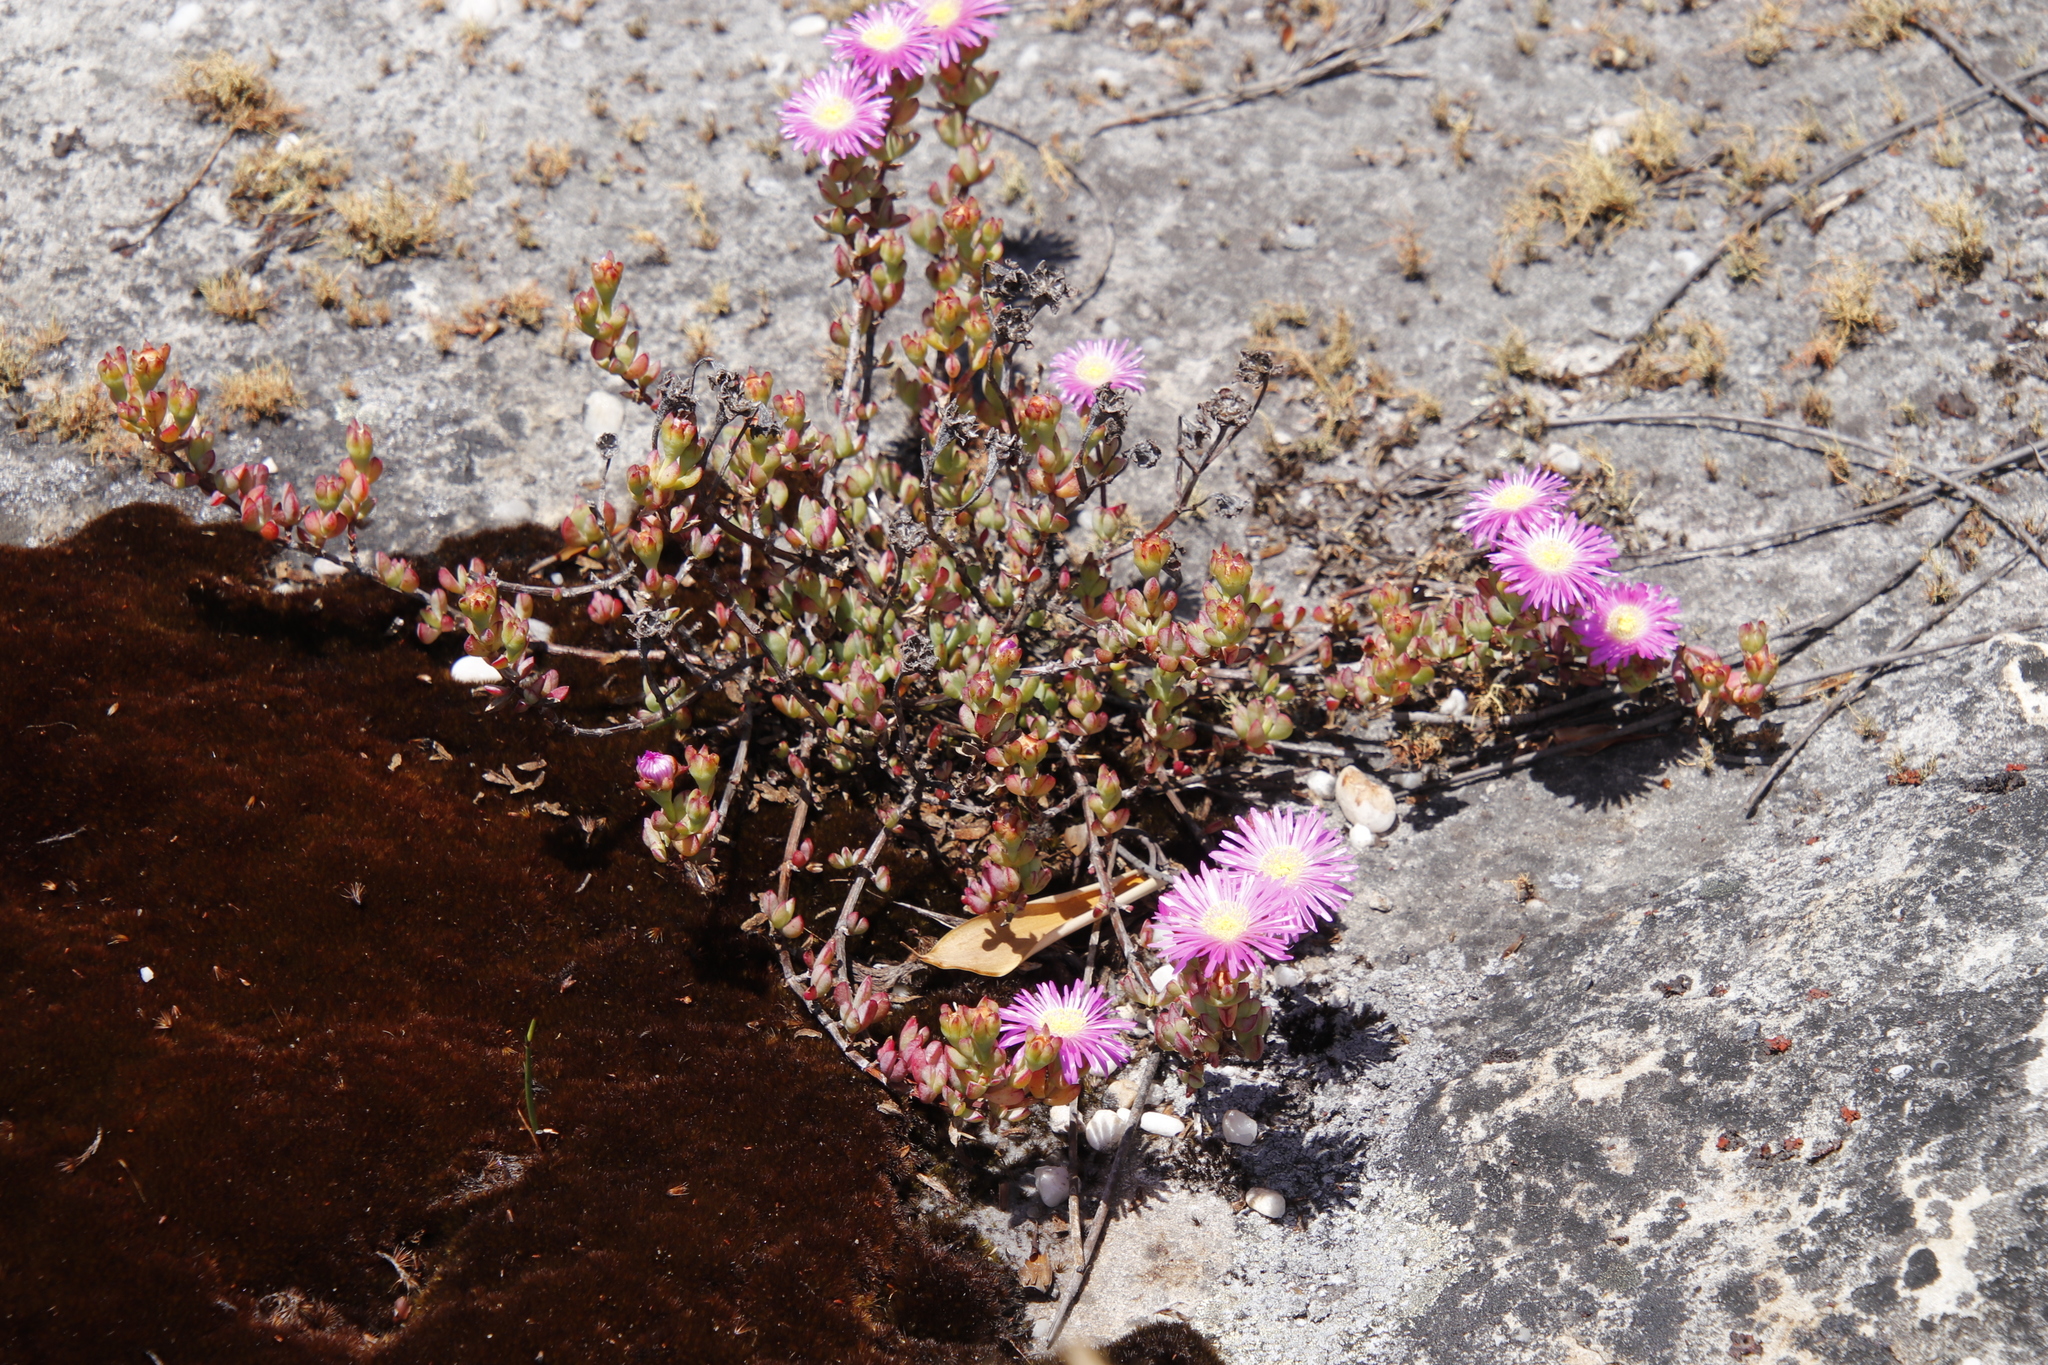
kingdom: Plantae
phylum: Tracheophyta
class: Magnoliopsida
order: Caryophyllales
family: Aizoaceae
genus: Oscularia
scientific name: Oscularia falciformis
